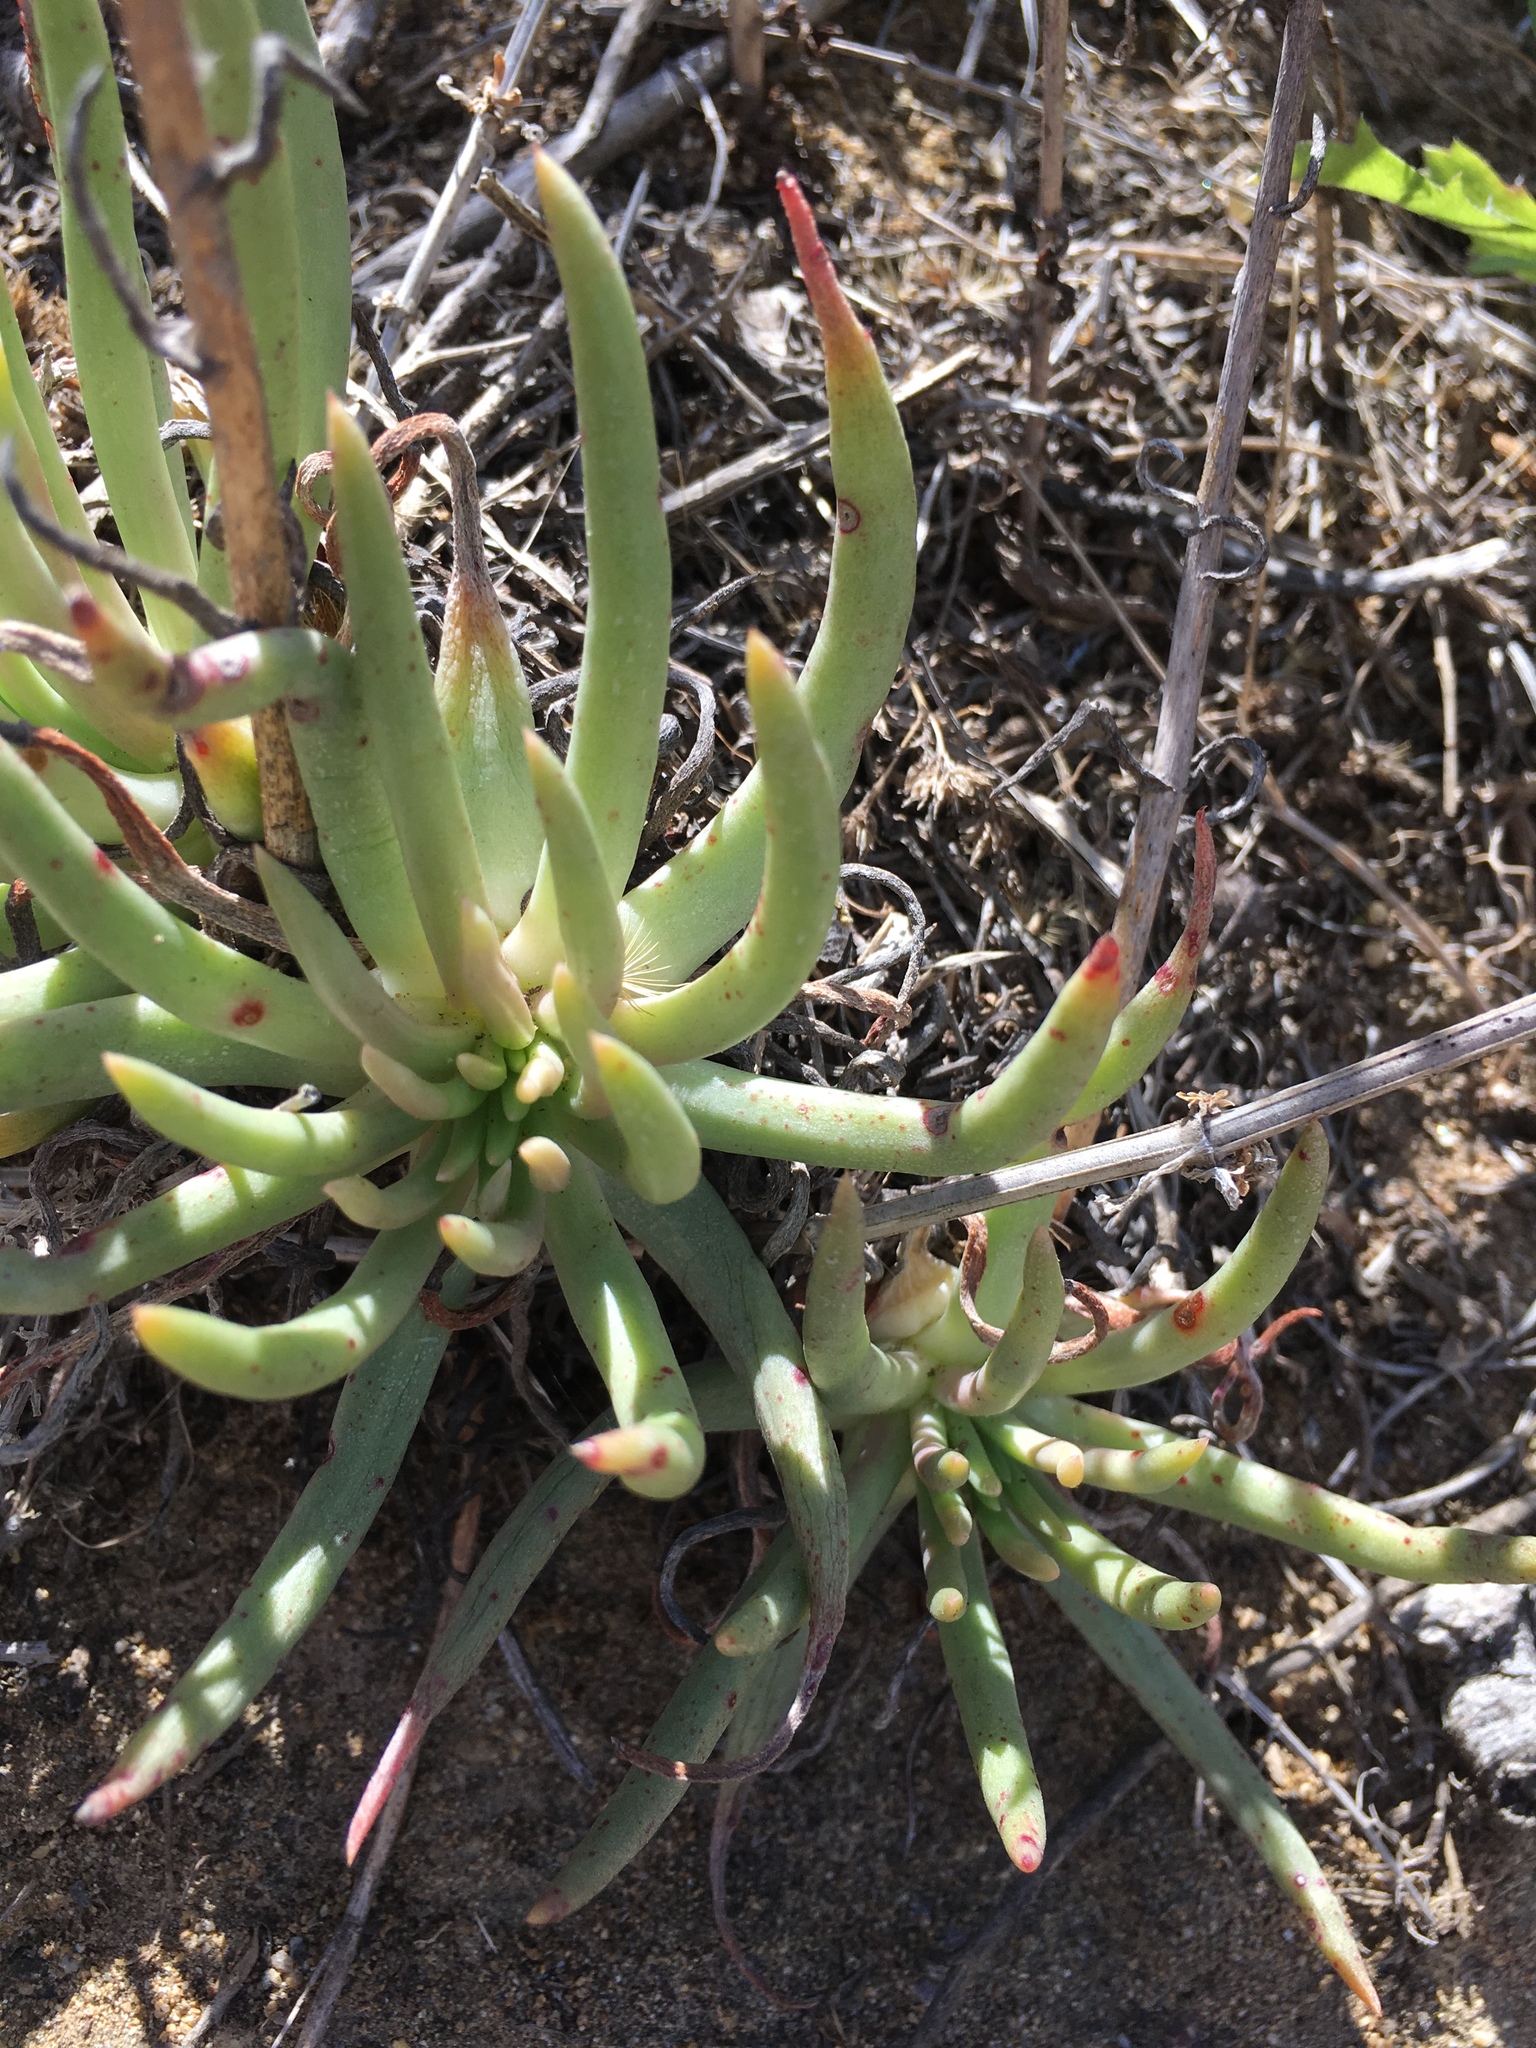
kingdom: Plantae
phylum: Tracheophyta
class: Magnoliopsida
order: Saxifragales
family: Crassulaceae
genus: Dudleya
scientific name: Dudleya edulis
